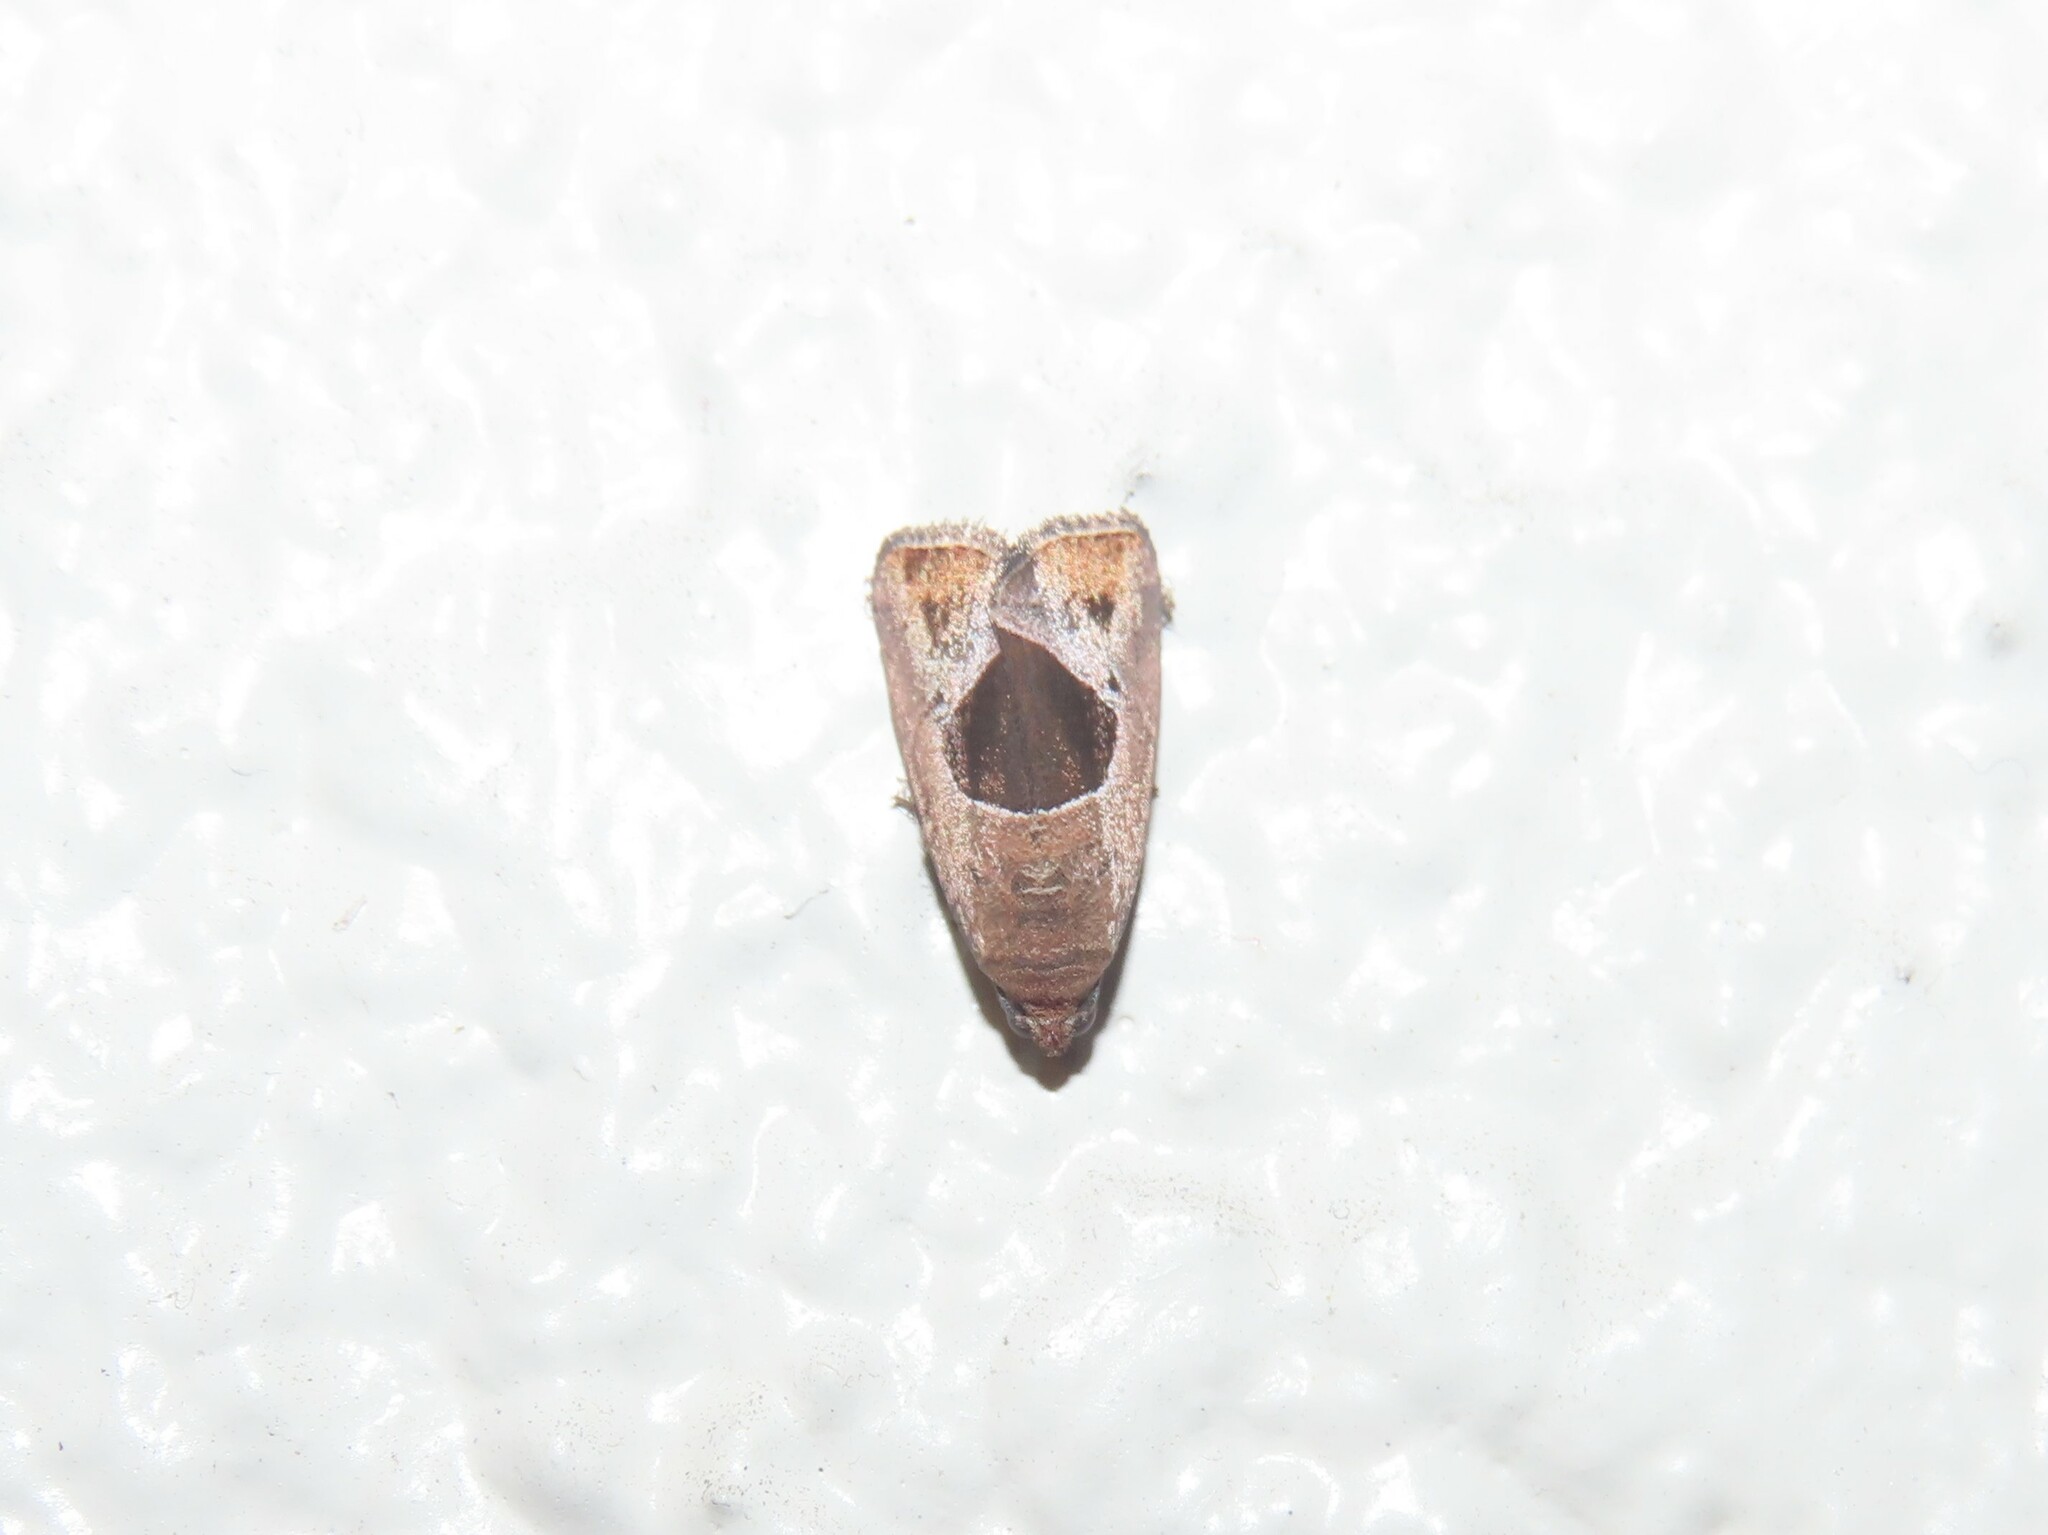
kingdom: Animalia
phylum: Arthropoda
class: Insecta
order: Lepidoptera
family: Noctuidae
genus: Elaphria
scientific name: Elaphria deltoides
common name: Cutworm moth
